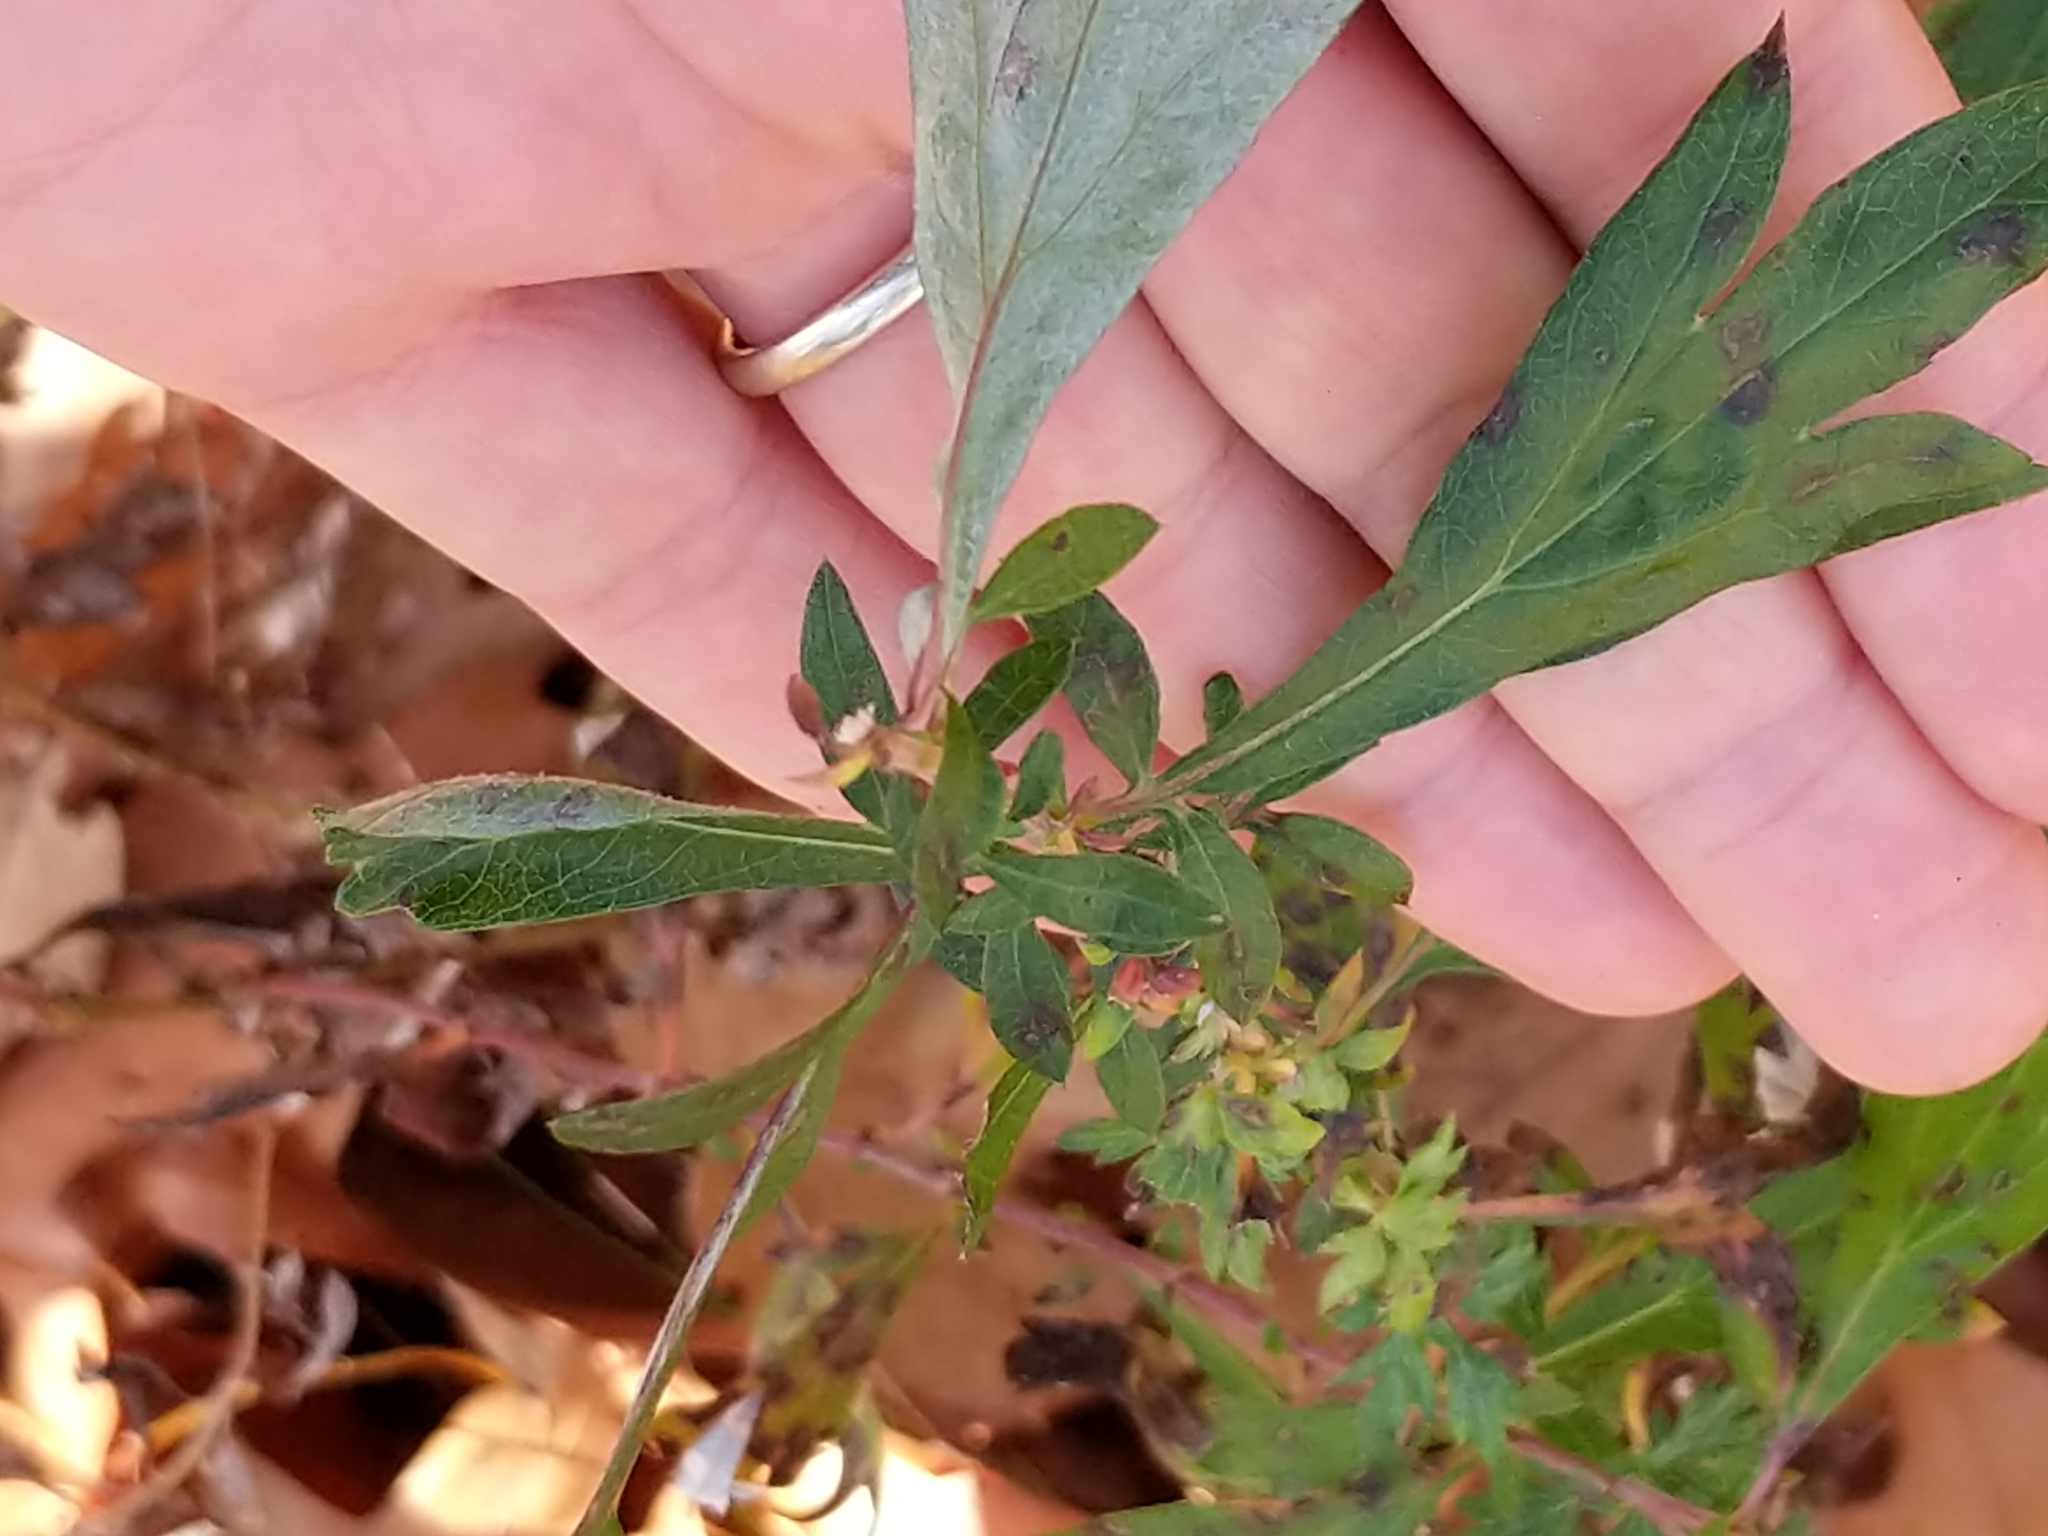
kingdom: Plantae
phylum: Tracheophyta
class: Magnoliopsida
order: Asterales
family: Asteraceae
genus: Artemisia
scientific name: Artemisia vulgaris
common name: Mugwort
